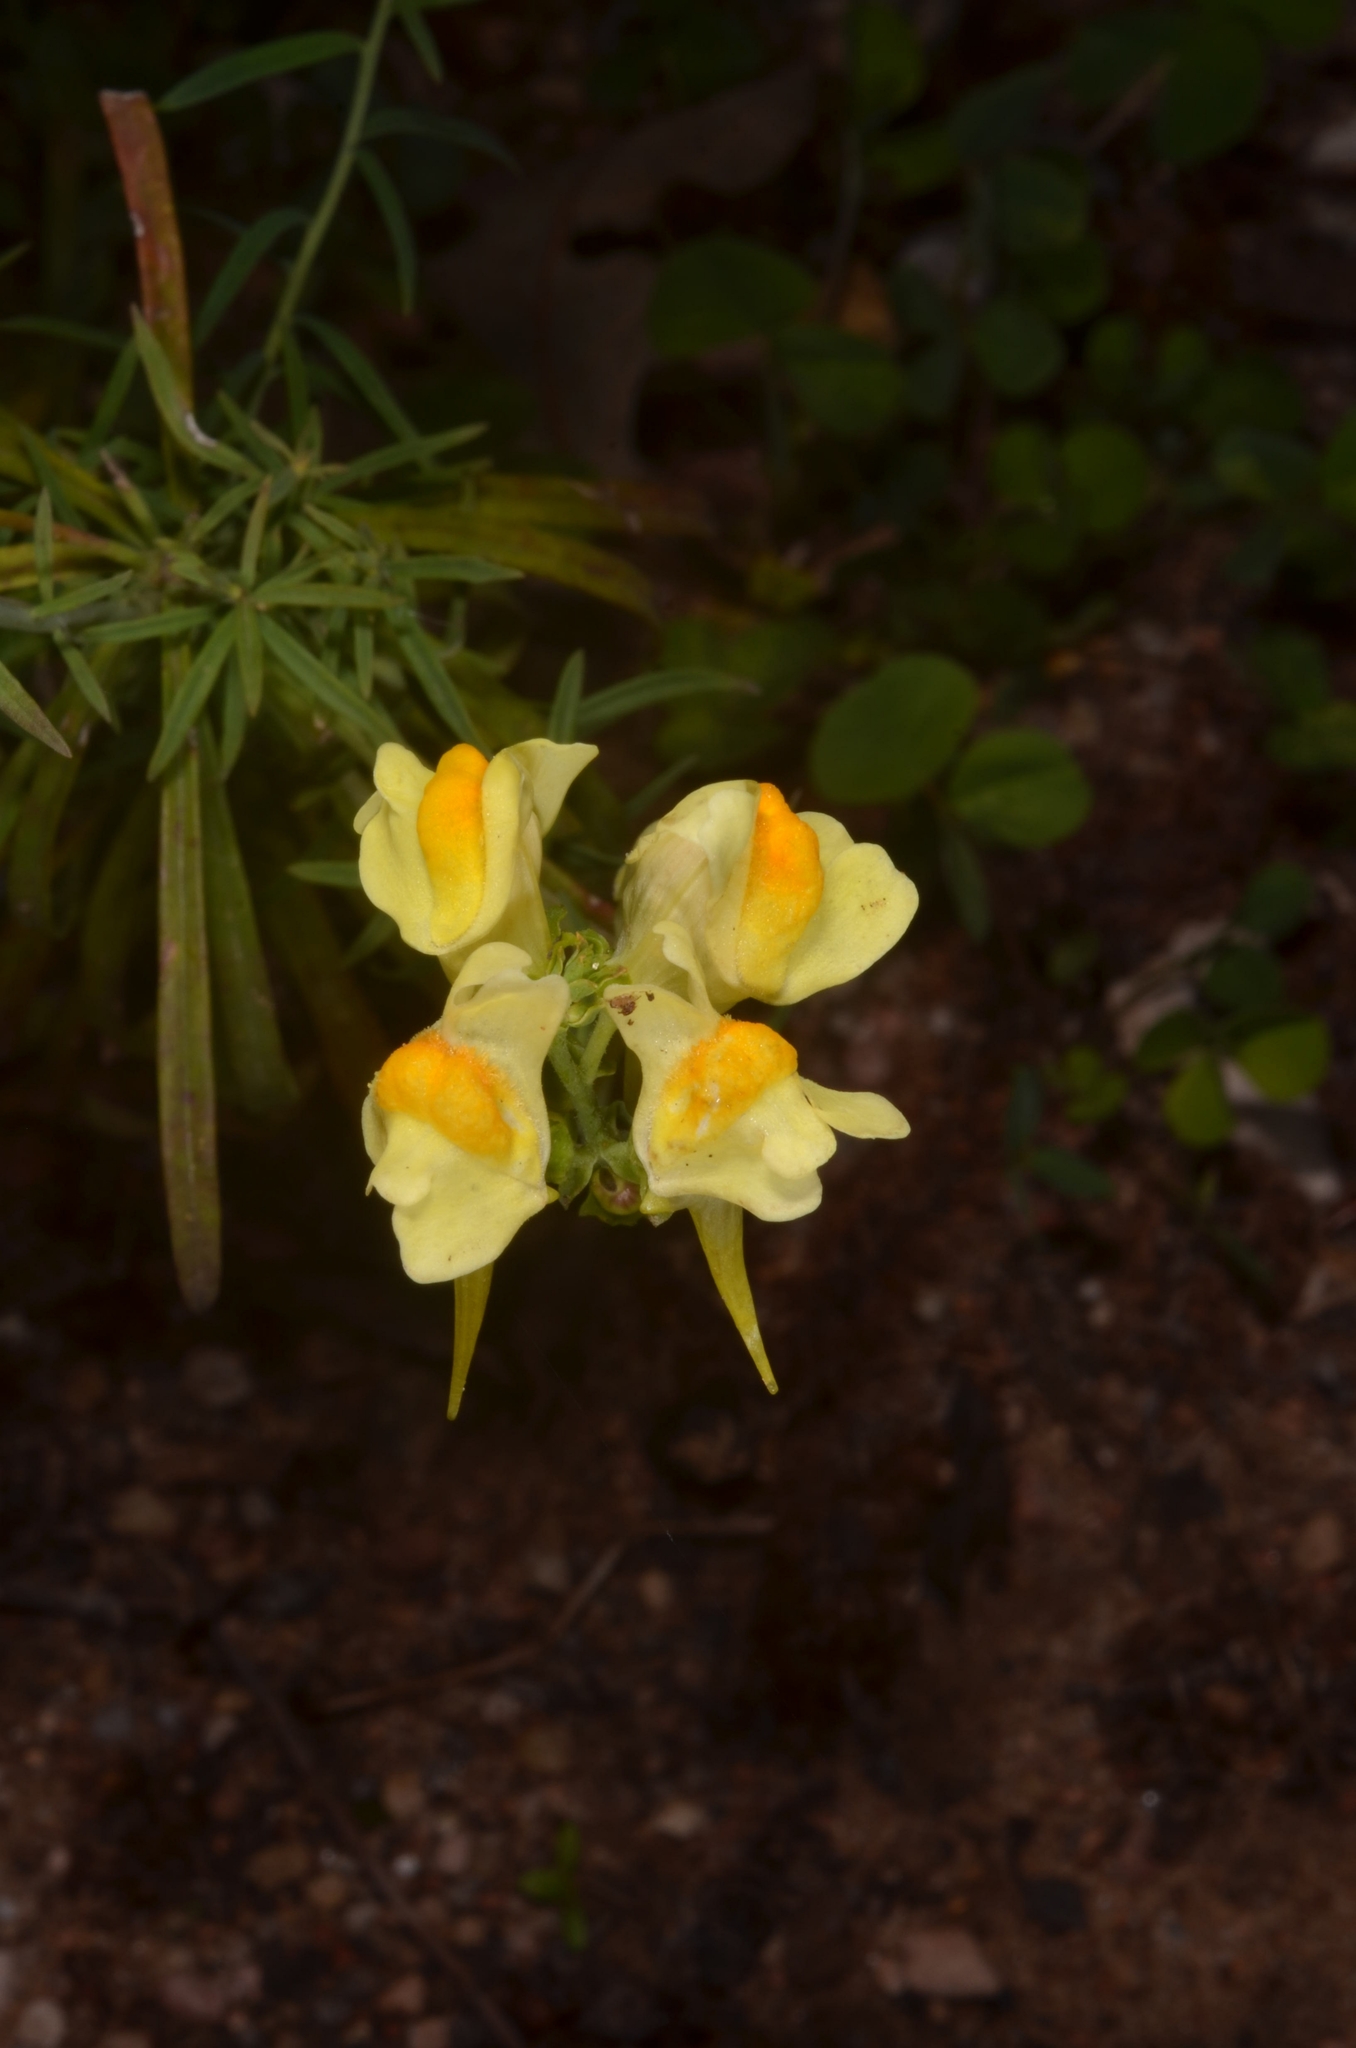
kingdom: Plantae
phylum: Tracheophyta
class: Magnoliopsida
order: Lamiales
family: Plantaginaceae
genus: Linaria
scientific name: Linaria vulgaris
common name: Butter and eggs
